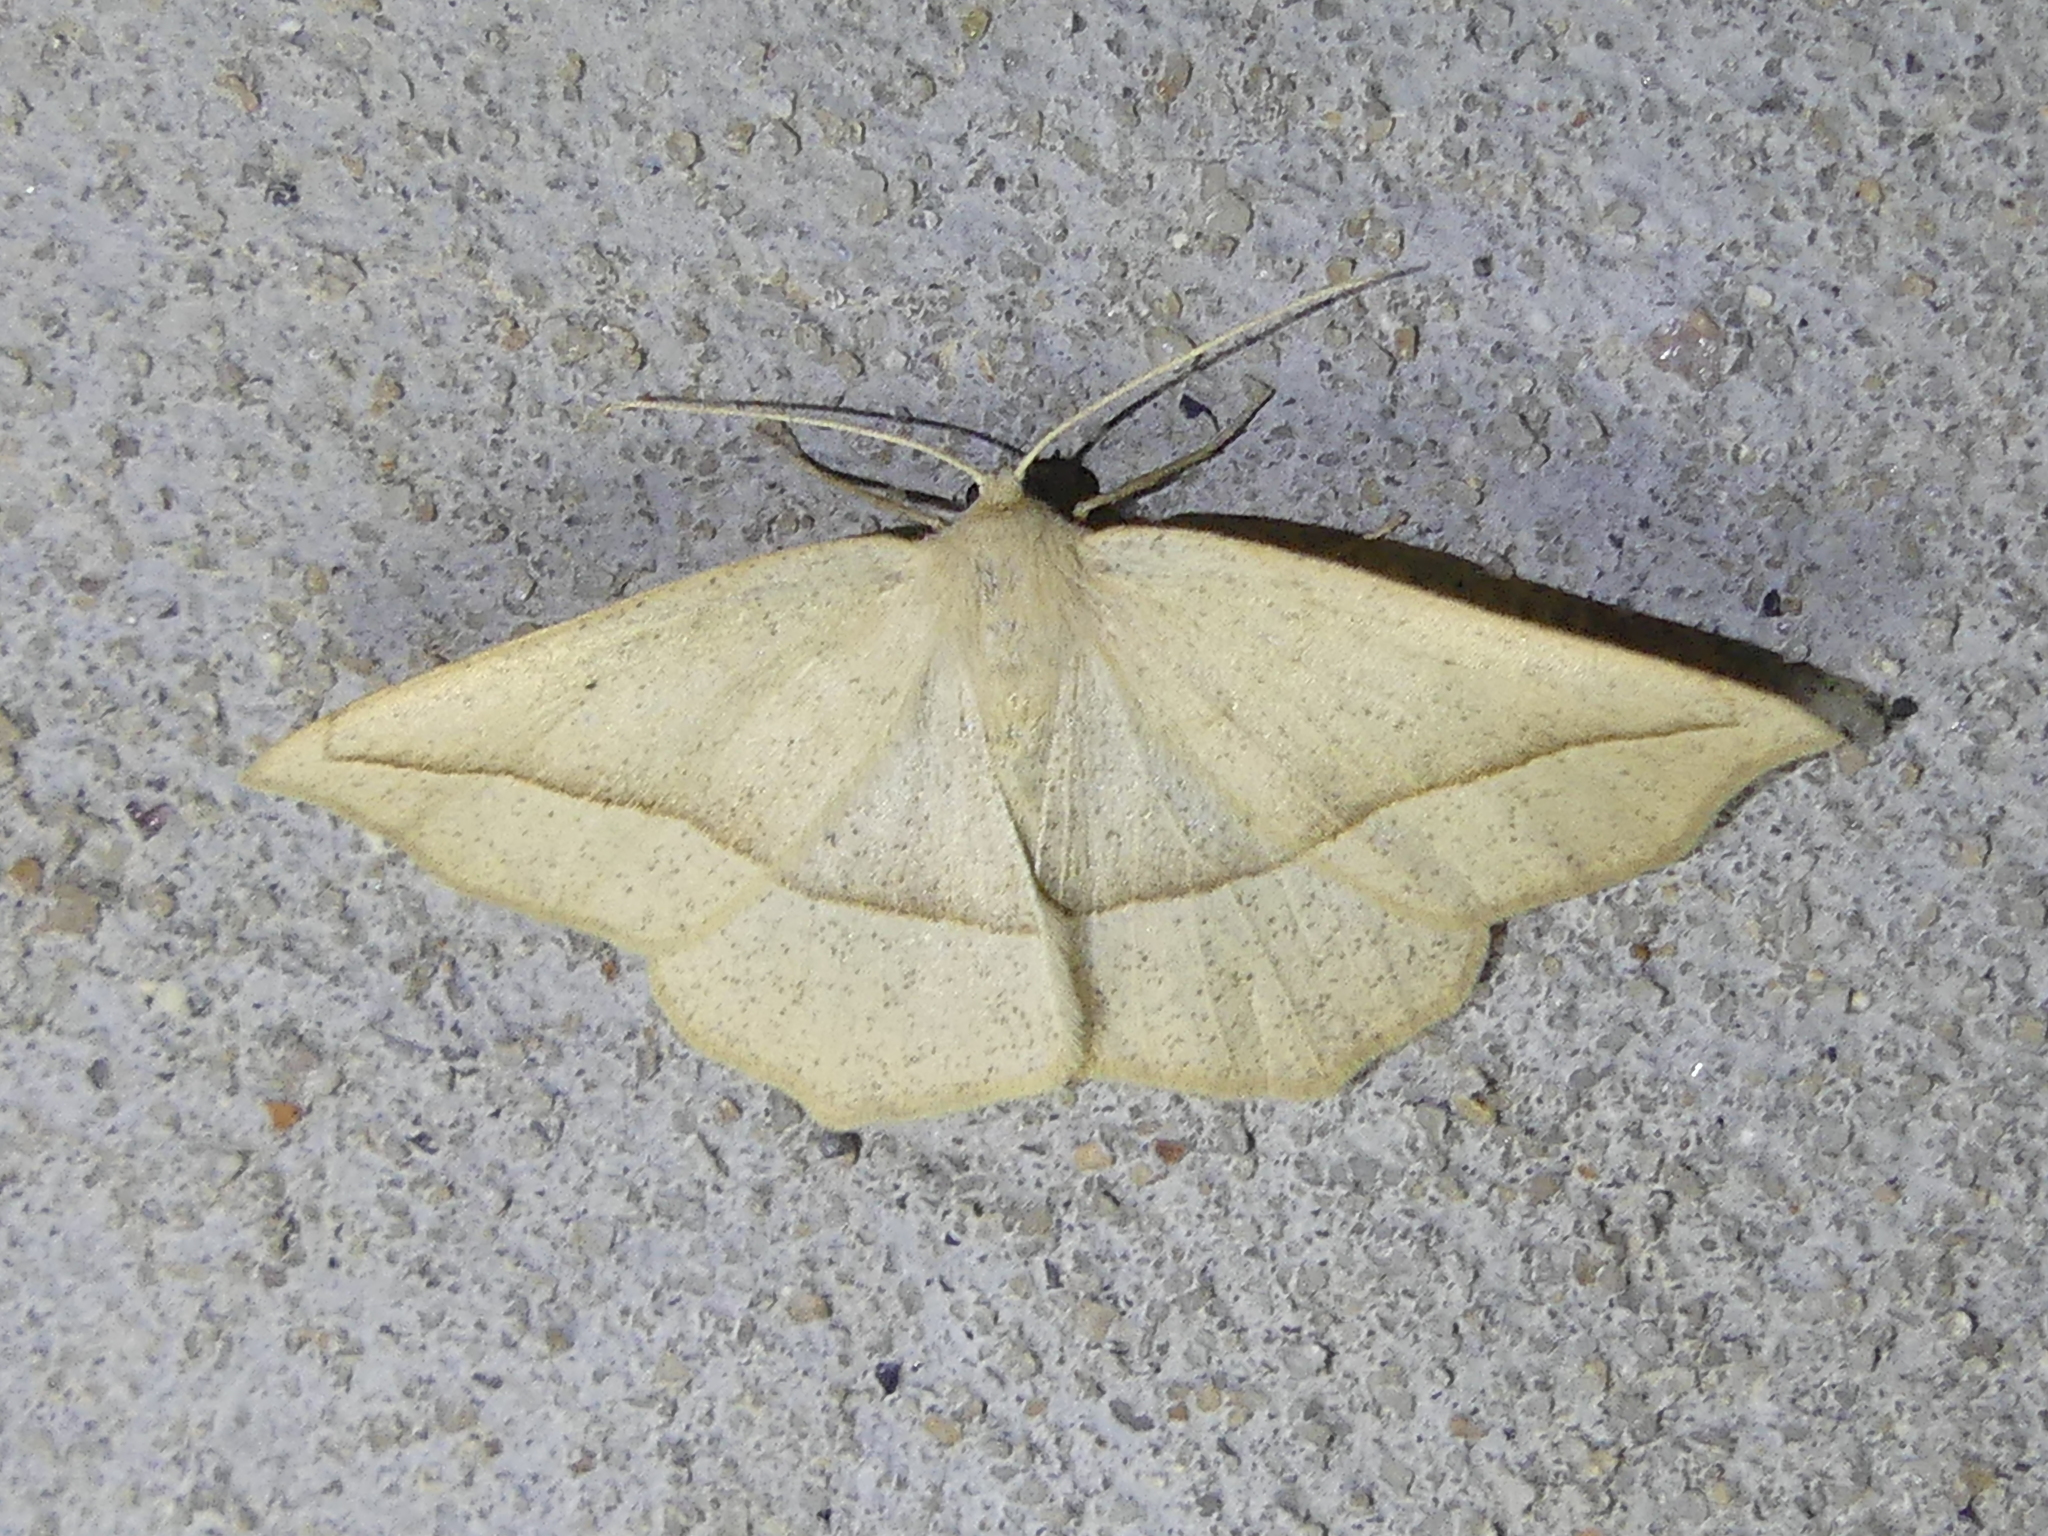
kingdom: Animalia
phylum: Arthropoda
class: Insecta
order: Lepidoptera
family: Geometridae
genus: Eusarca
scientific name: Eusarca confusaria
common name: Confused eusarca
